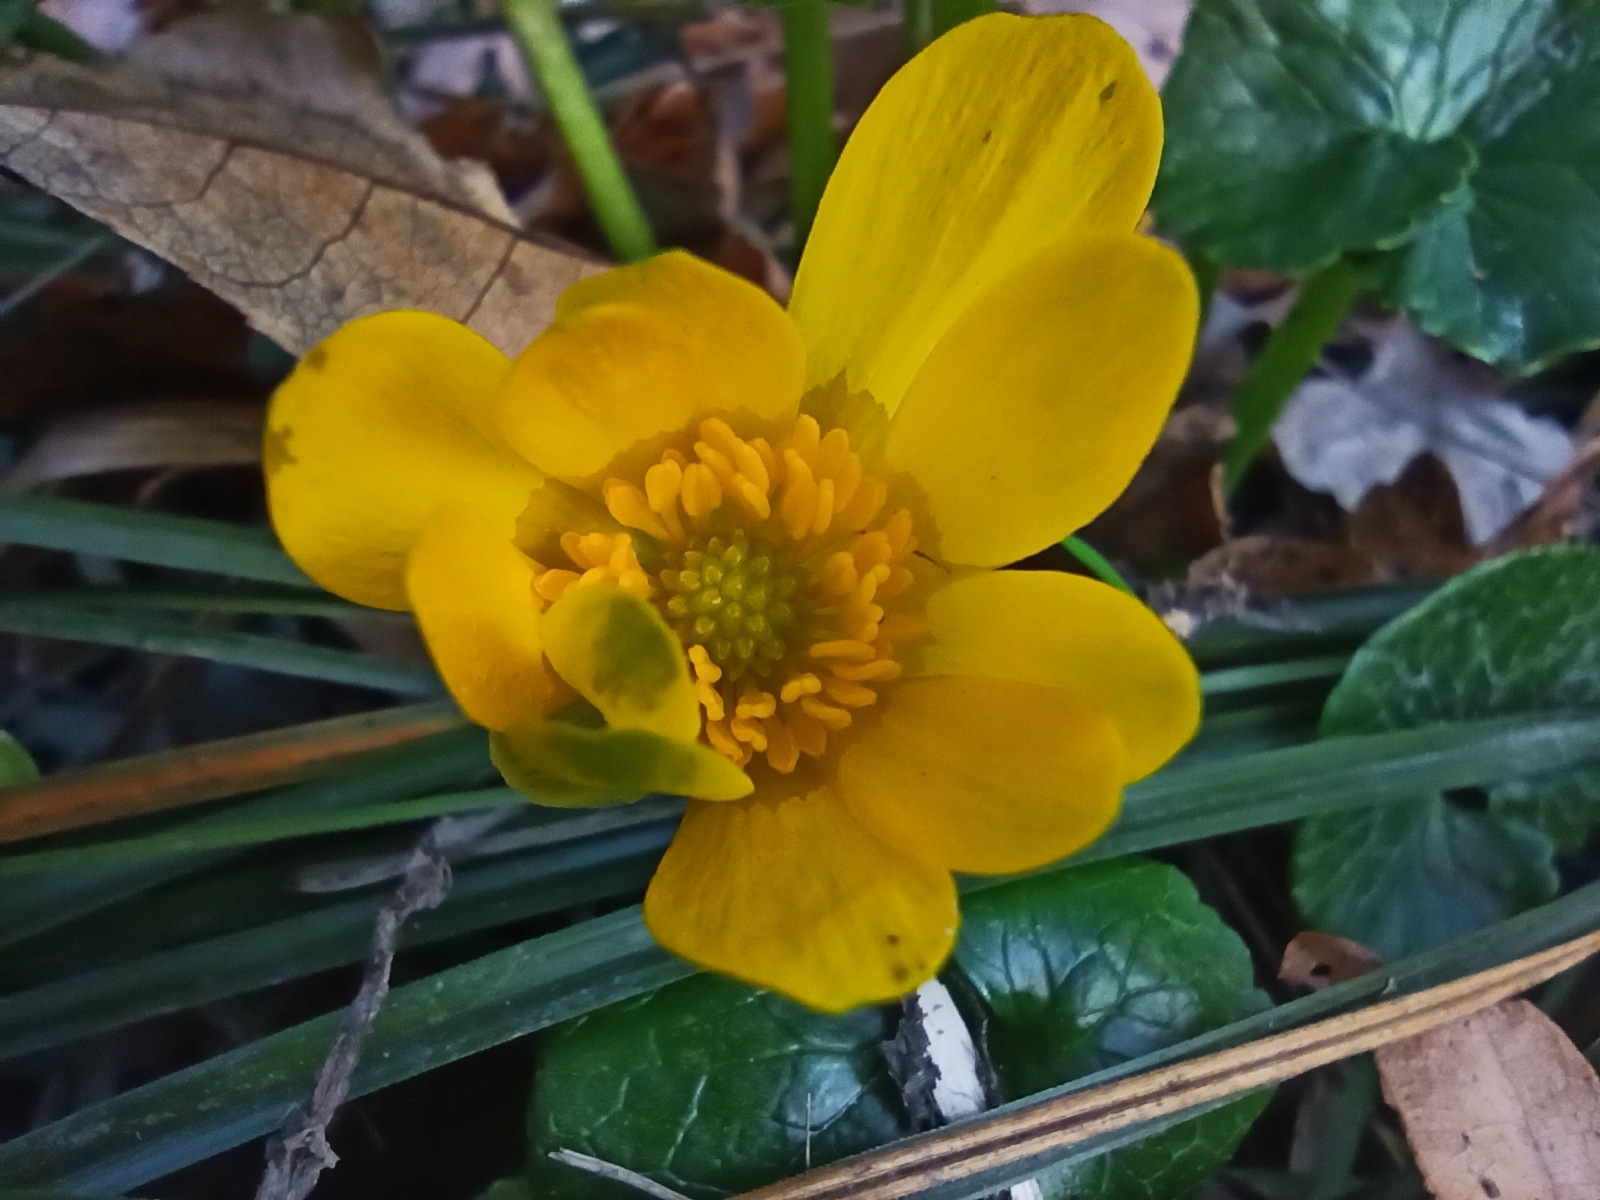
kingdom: Plantae
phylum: Tracheophyta
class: Magnoliopsida
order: Ranunculales
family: Ranunculaceae
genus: Ficaria
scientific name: Ficaria verna
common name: Lesser celandine
